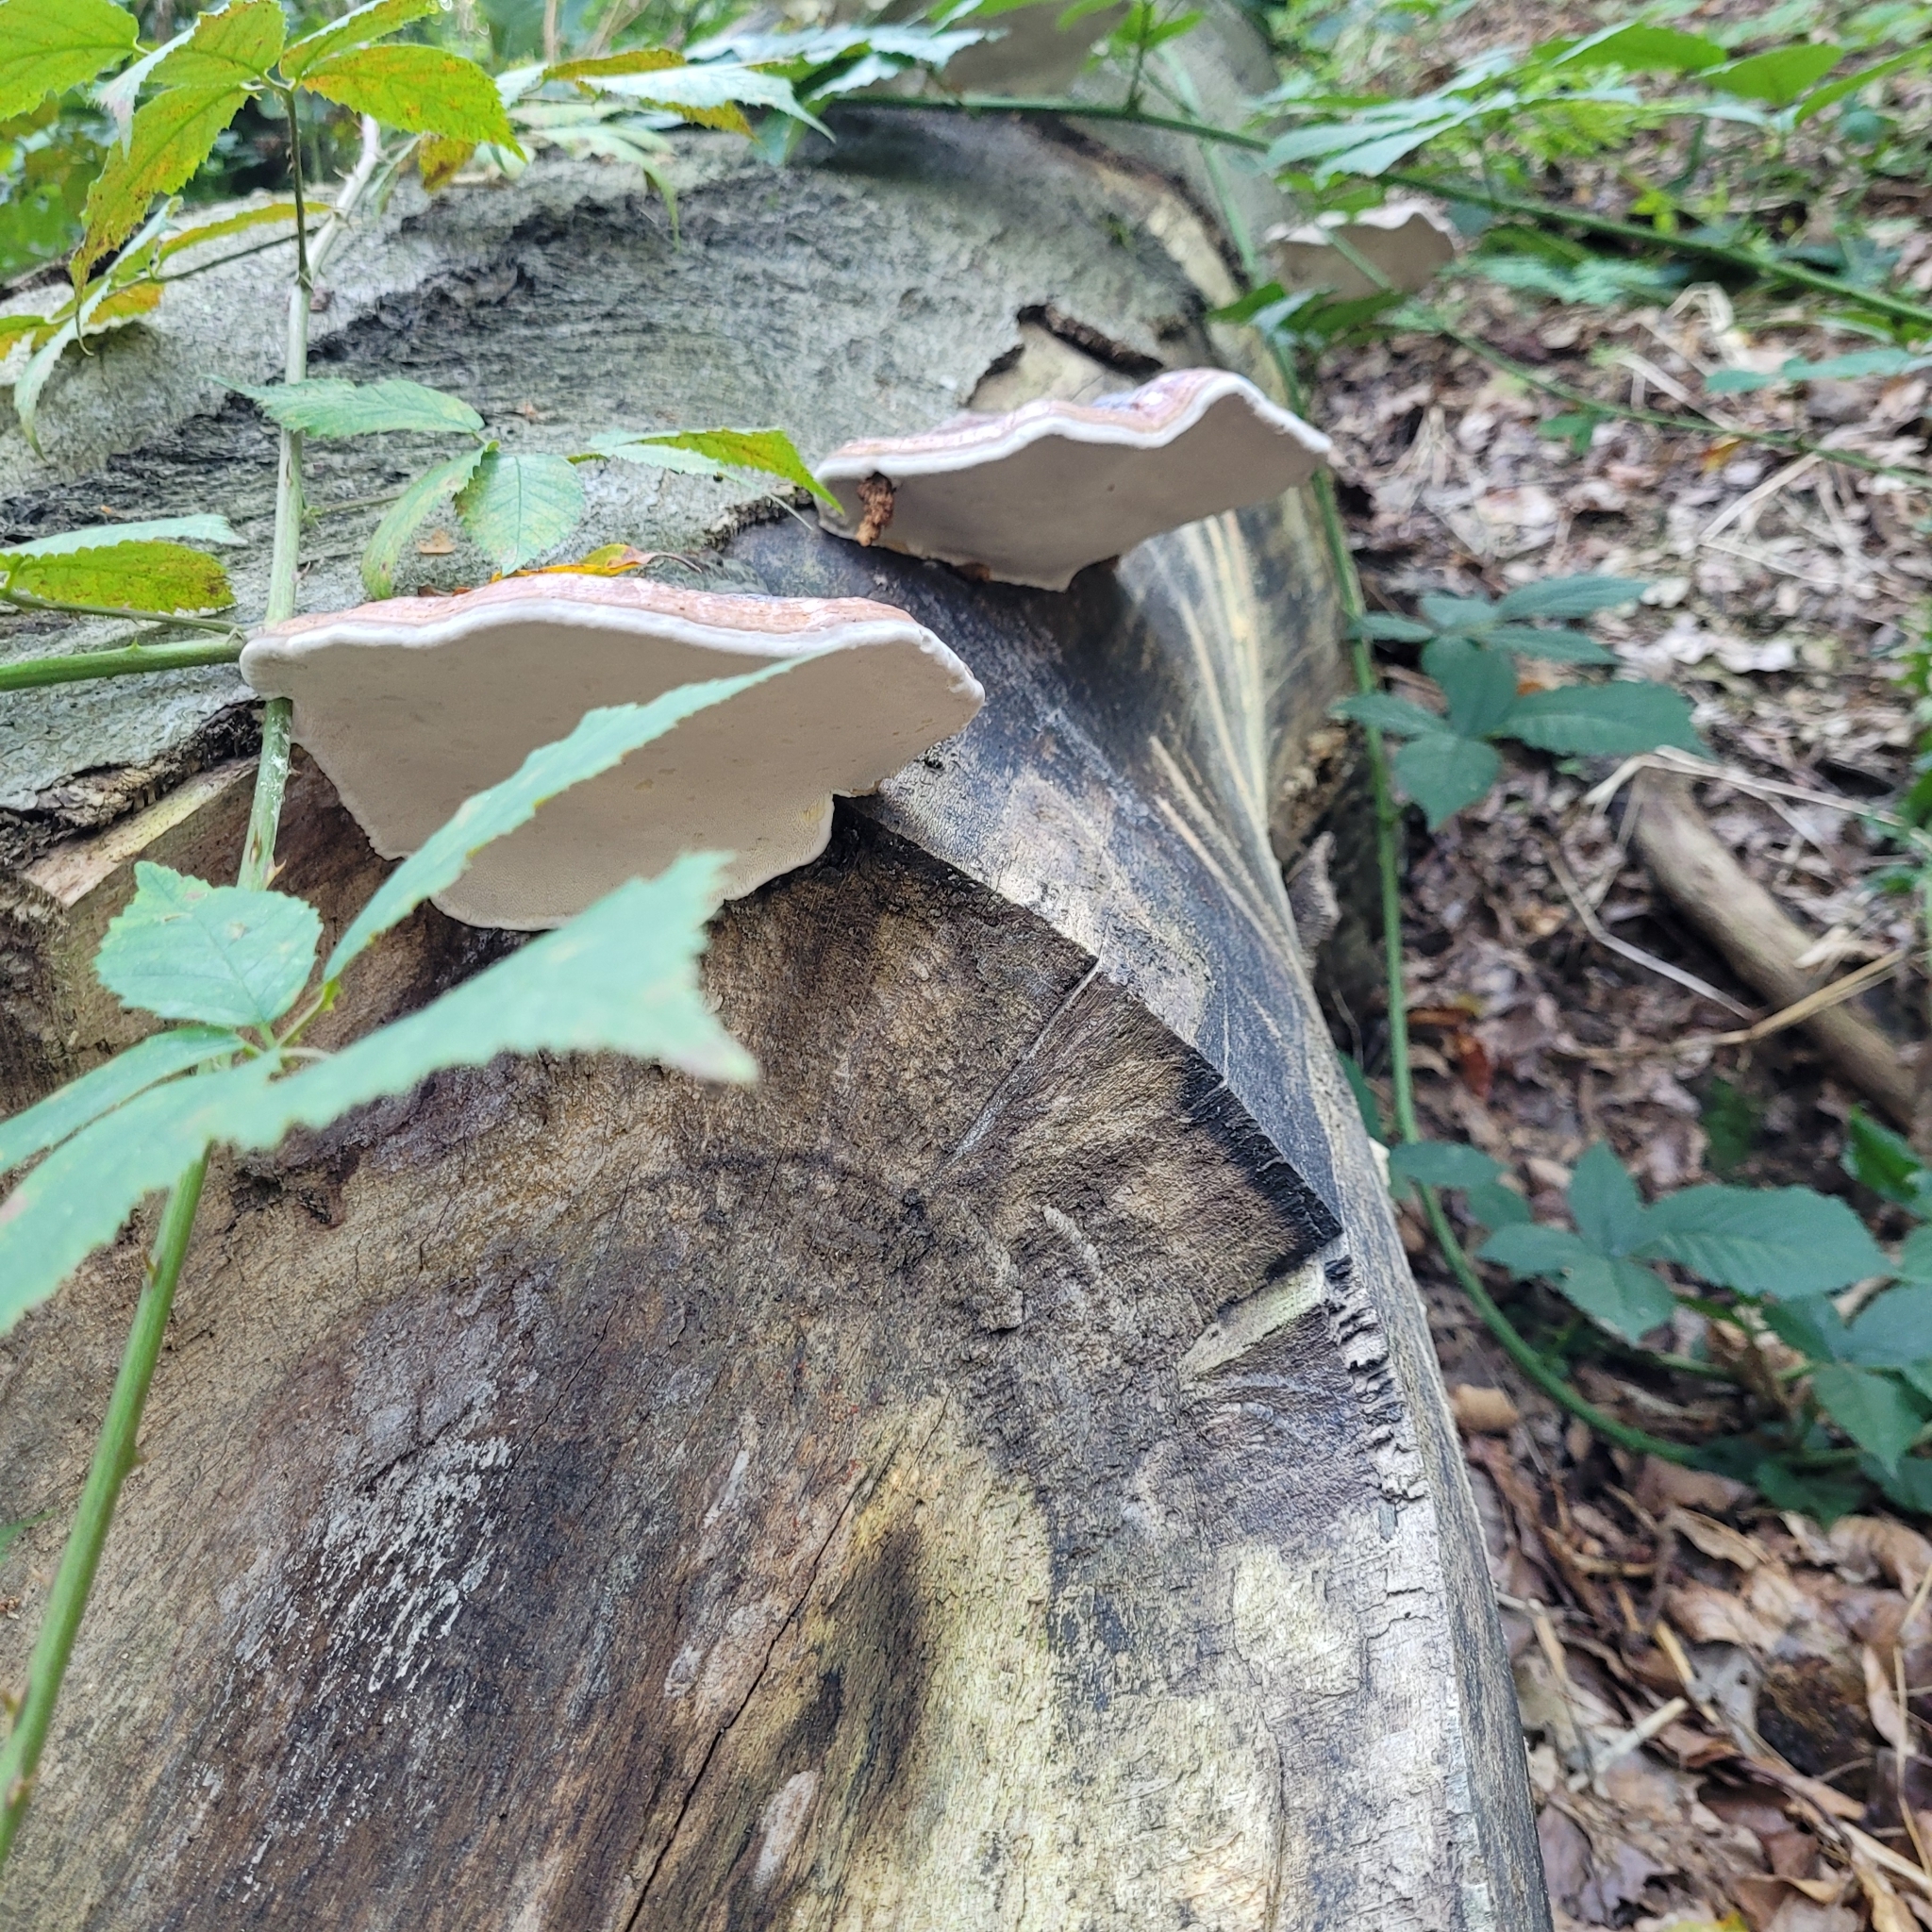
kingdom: Fungi
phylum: Basidiomycota
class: Agaricomycetes
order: Polyporales
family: Fomitopsidaceae
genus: Fomitopsis
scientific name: Fomitopsis pinicola
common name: Red-belted bracket
